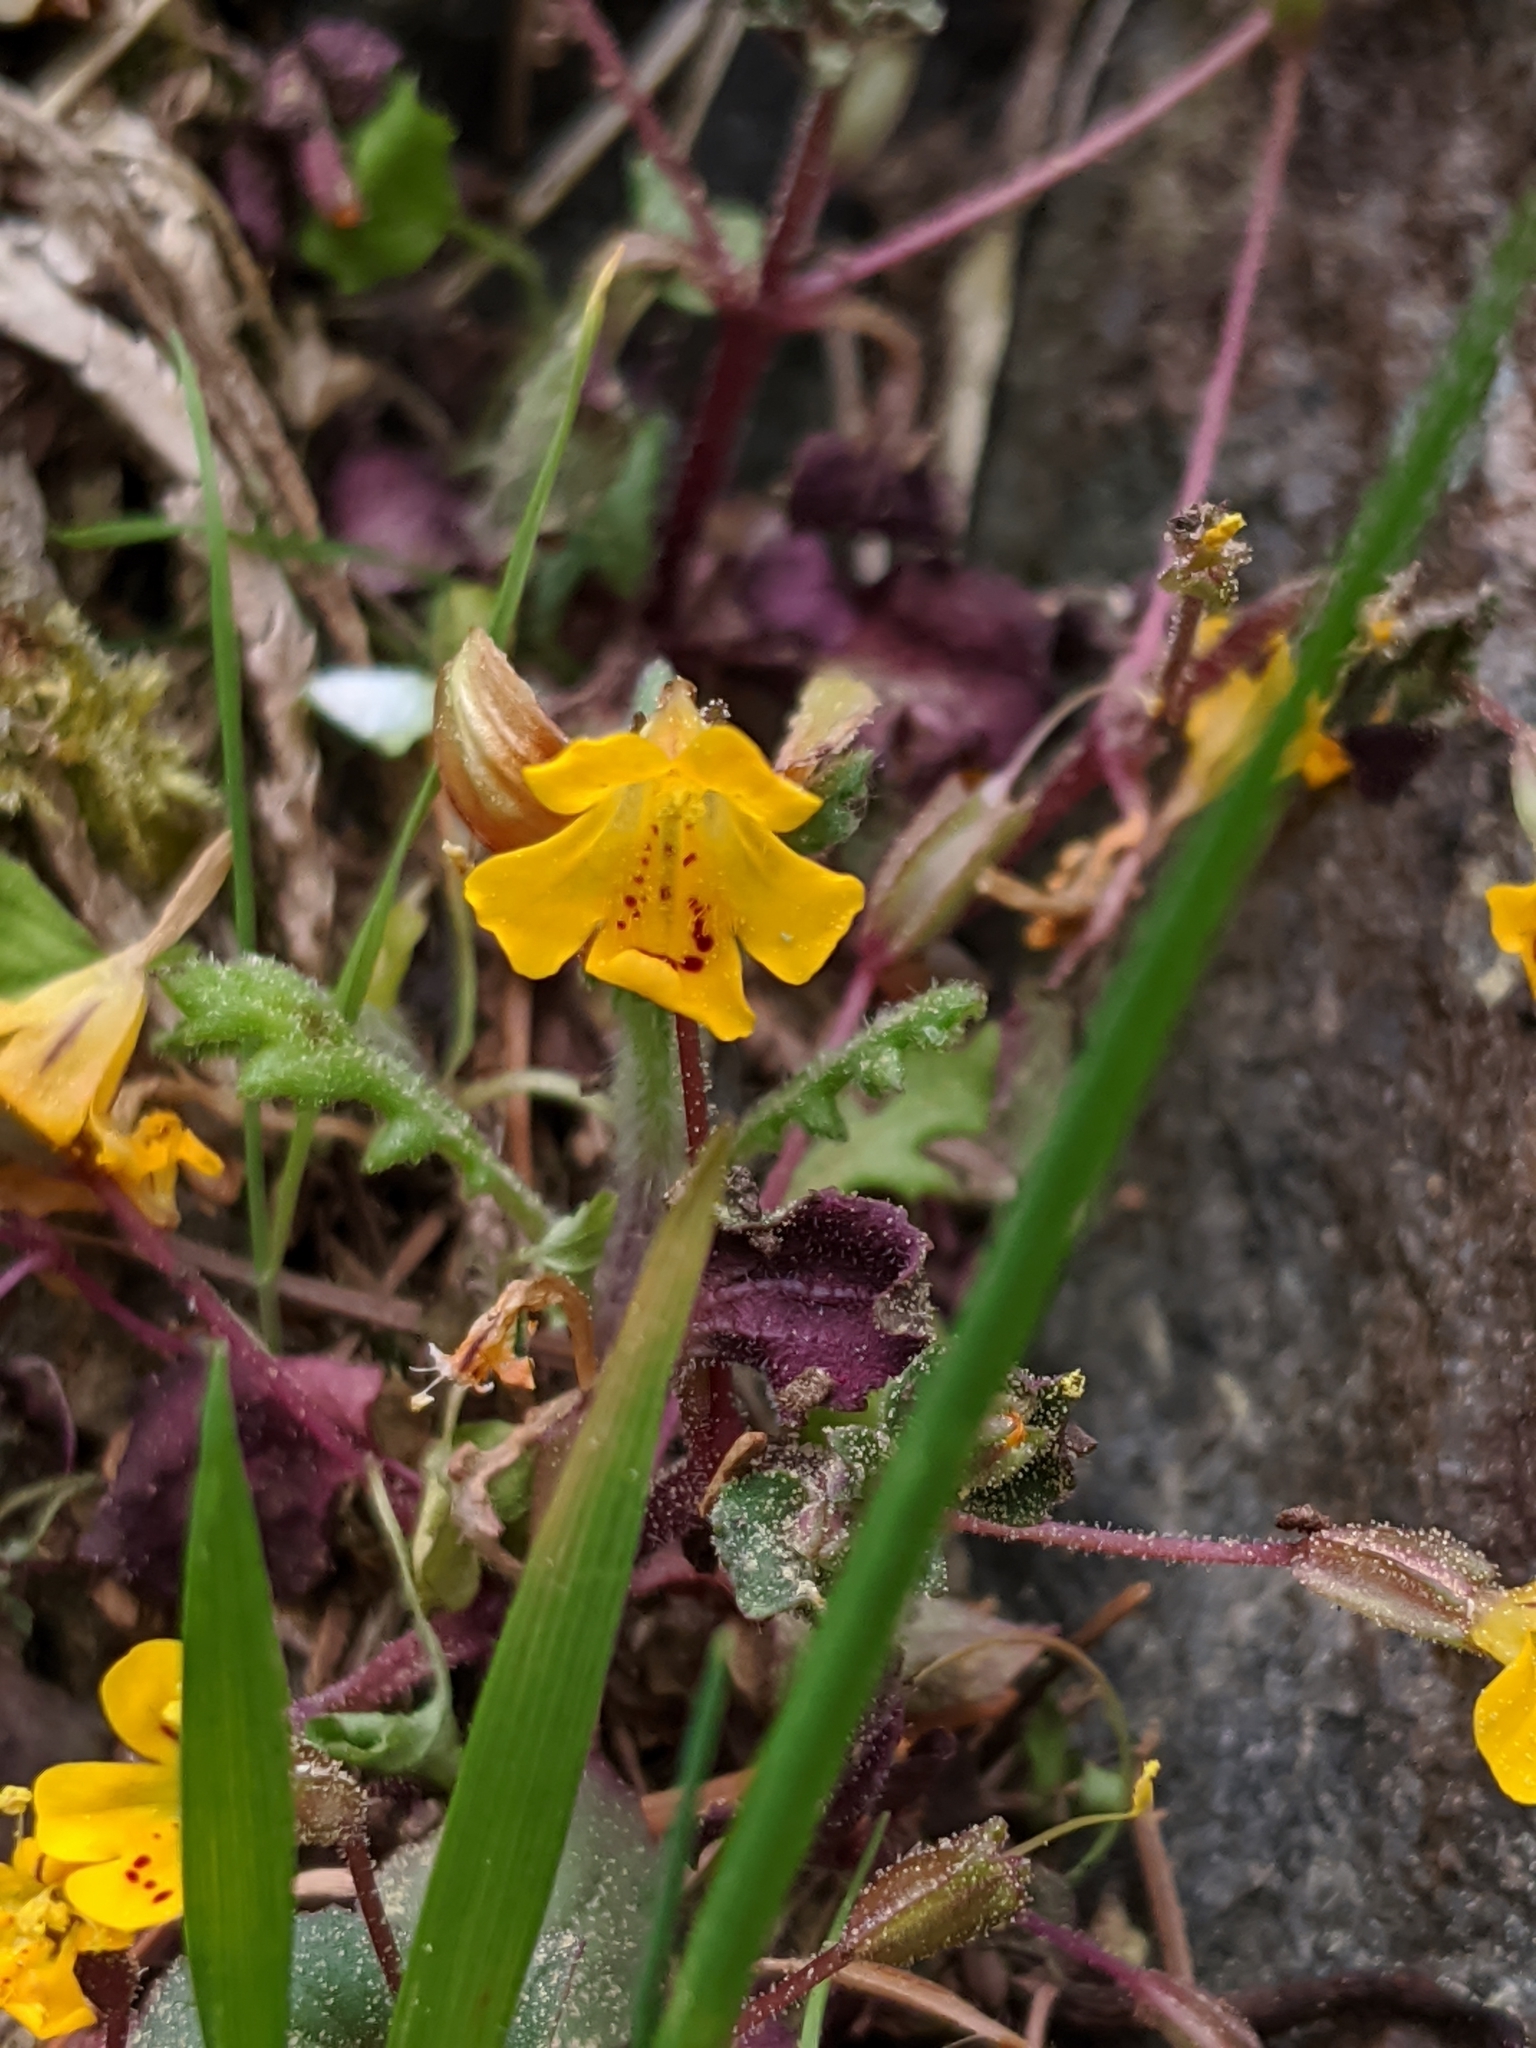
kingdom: Plantae
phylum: Tracheophyta
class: Magnoliopsida
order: Lamiales
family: Phrymaceae
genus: Erythranthe
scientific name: Erythranthe alsinoides
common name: Chickweed monkeyflower
